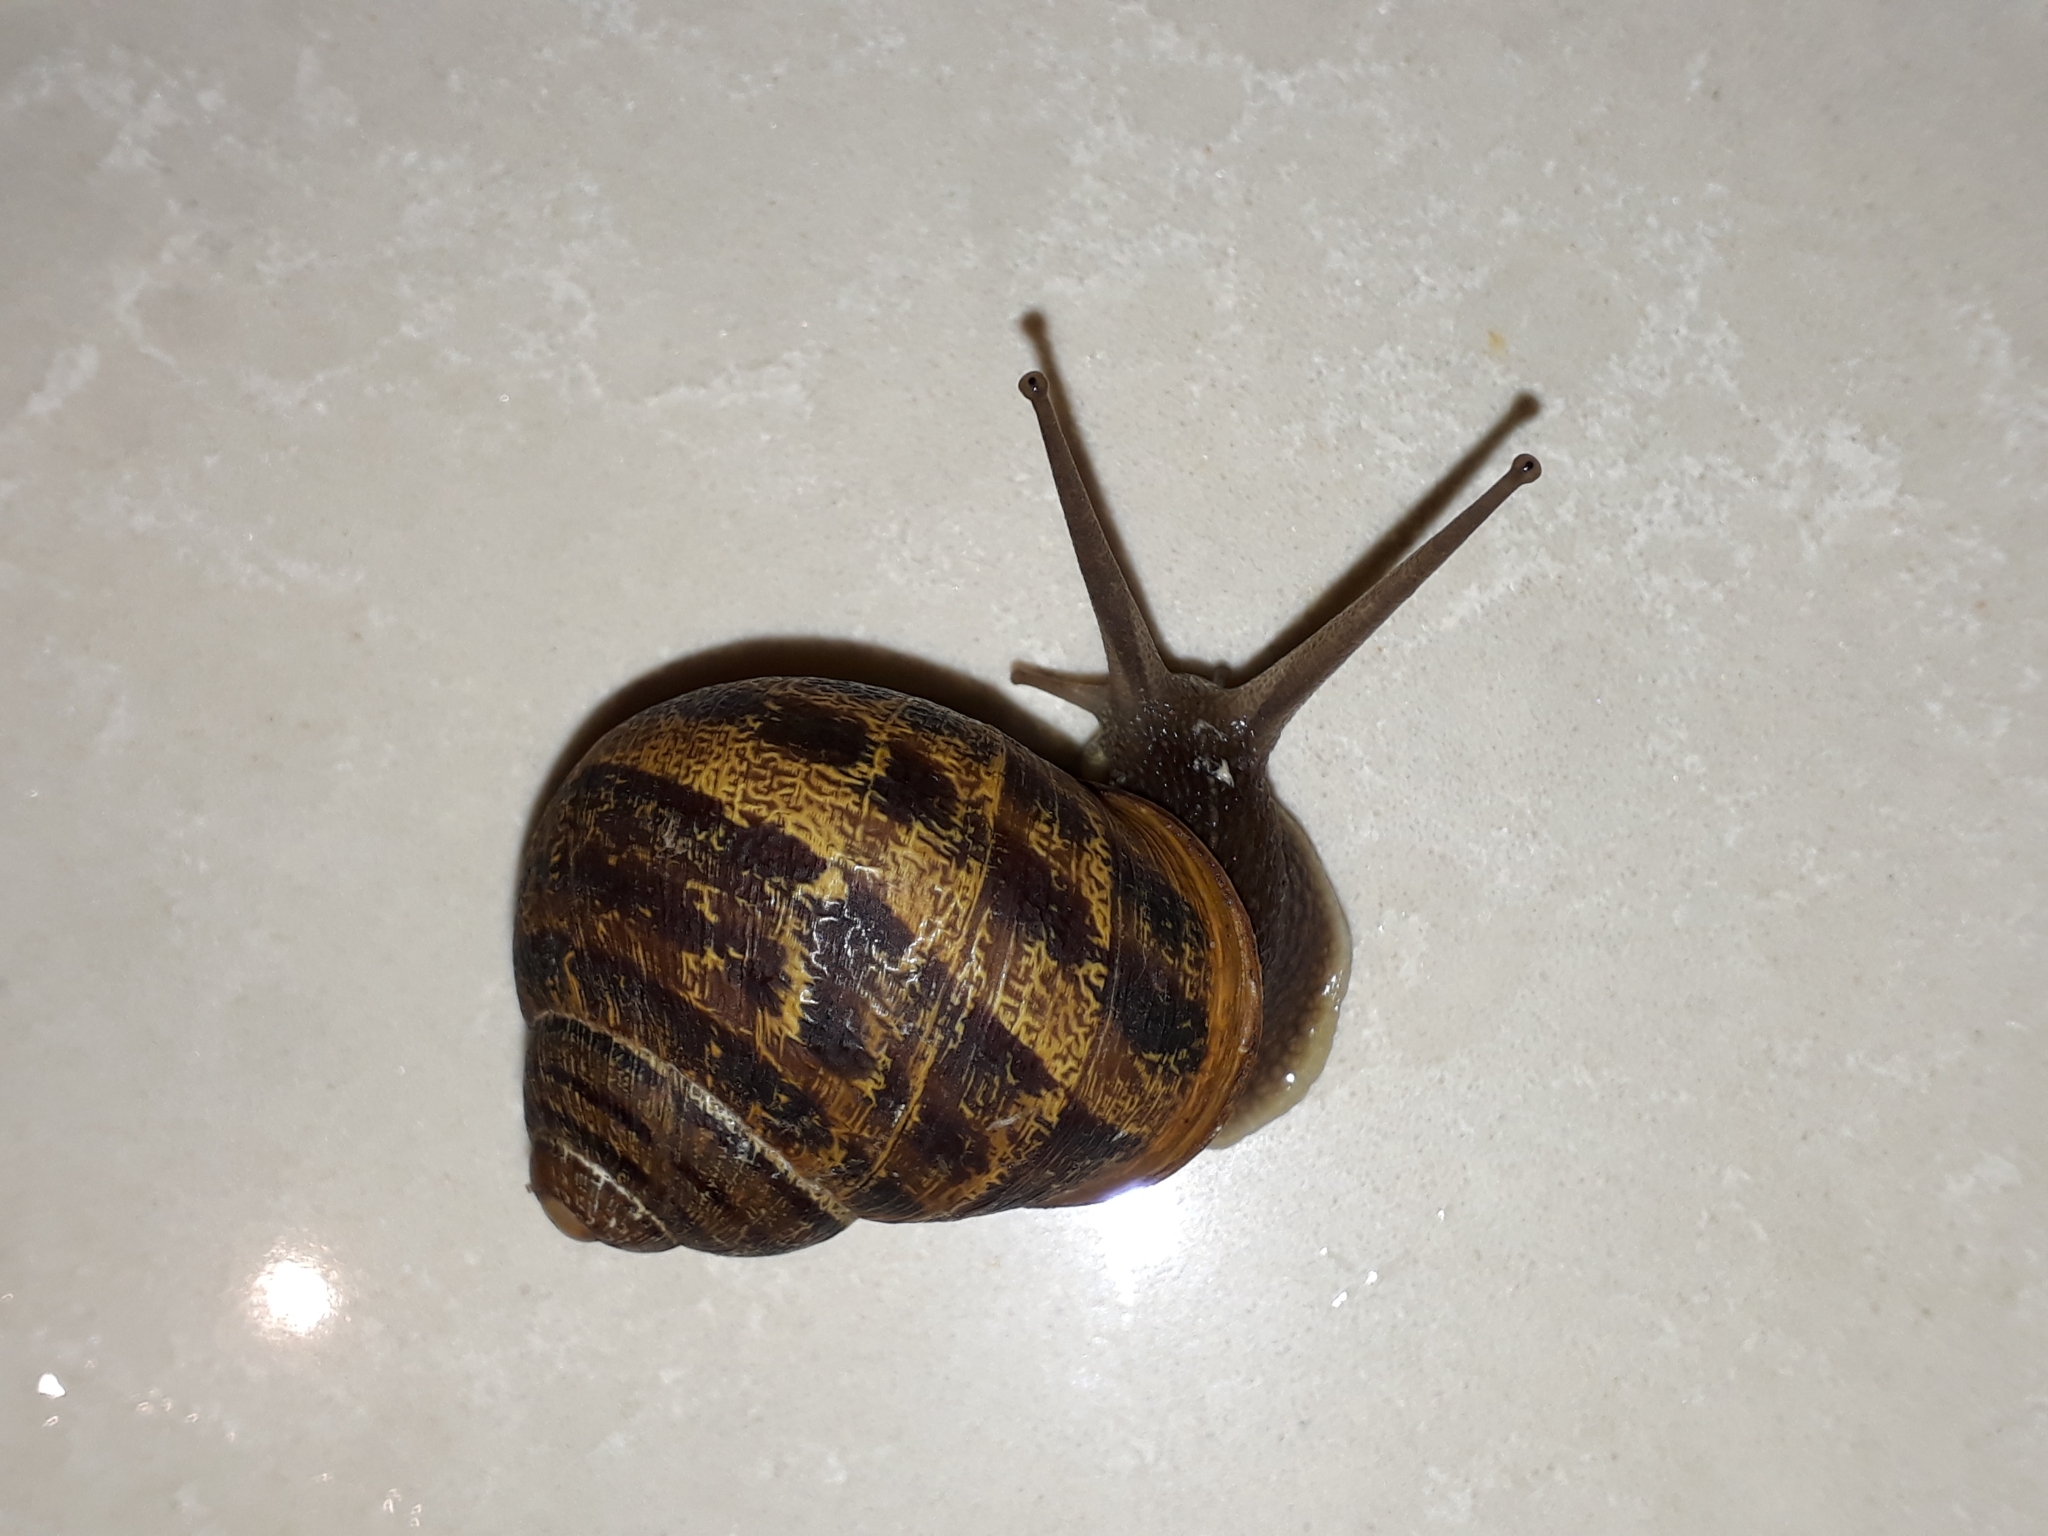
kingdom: Animalia
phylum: Mollusca
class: Gastropoda
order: Stylommatophora
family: Helicidae
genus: Cornu
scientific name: Cornu aspersum
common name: Brown garden snail
